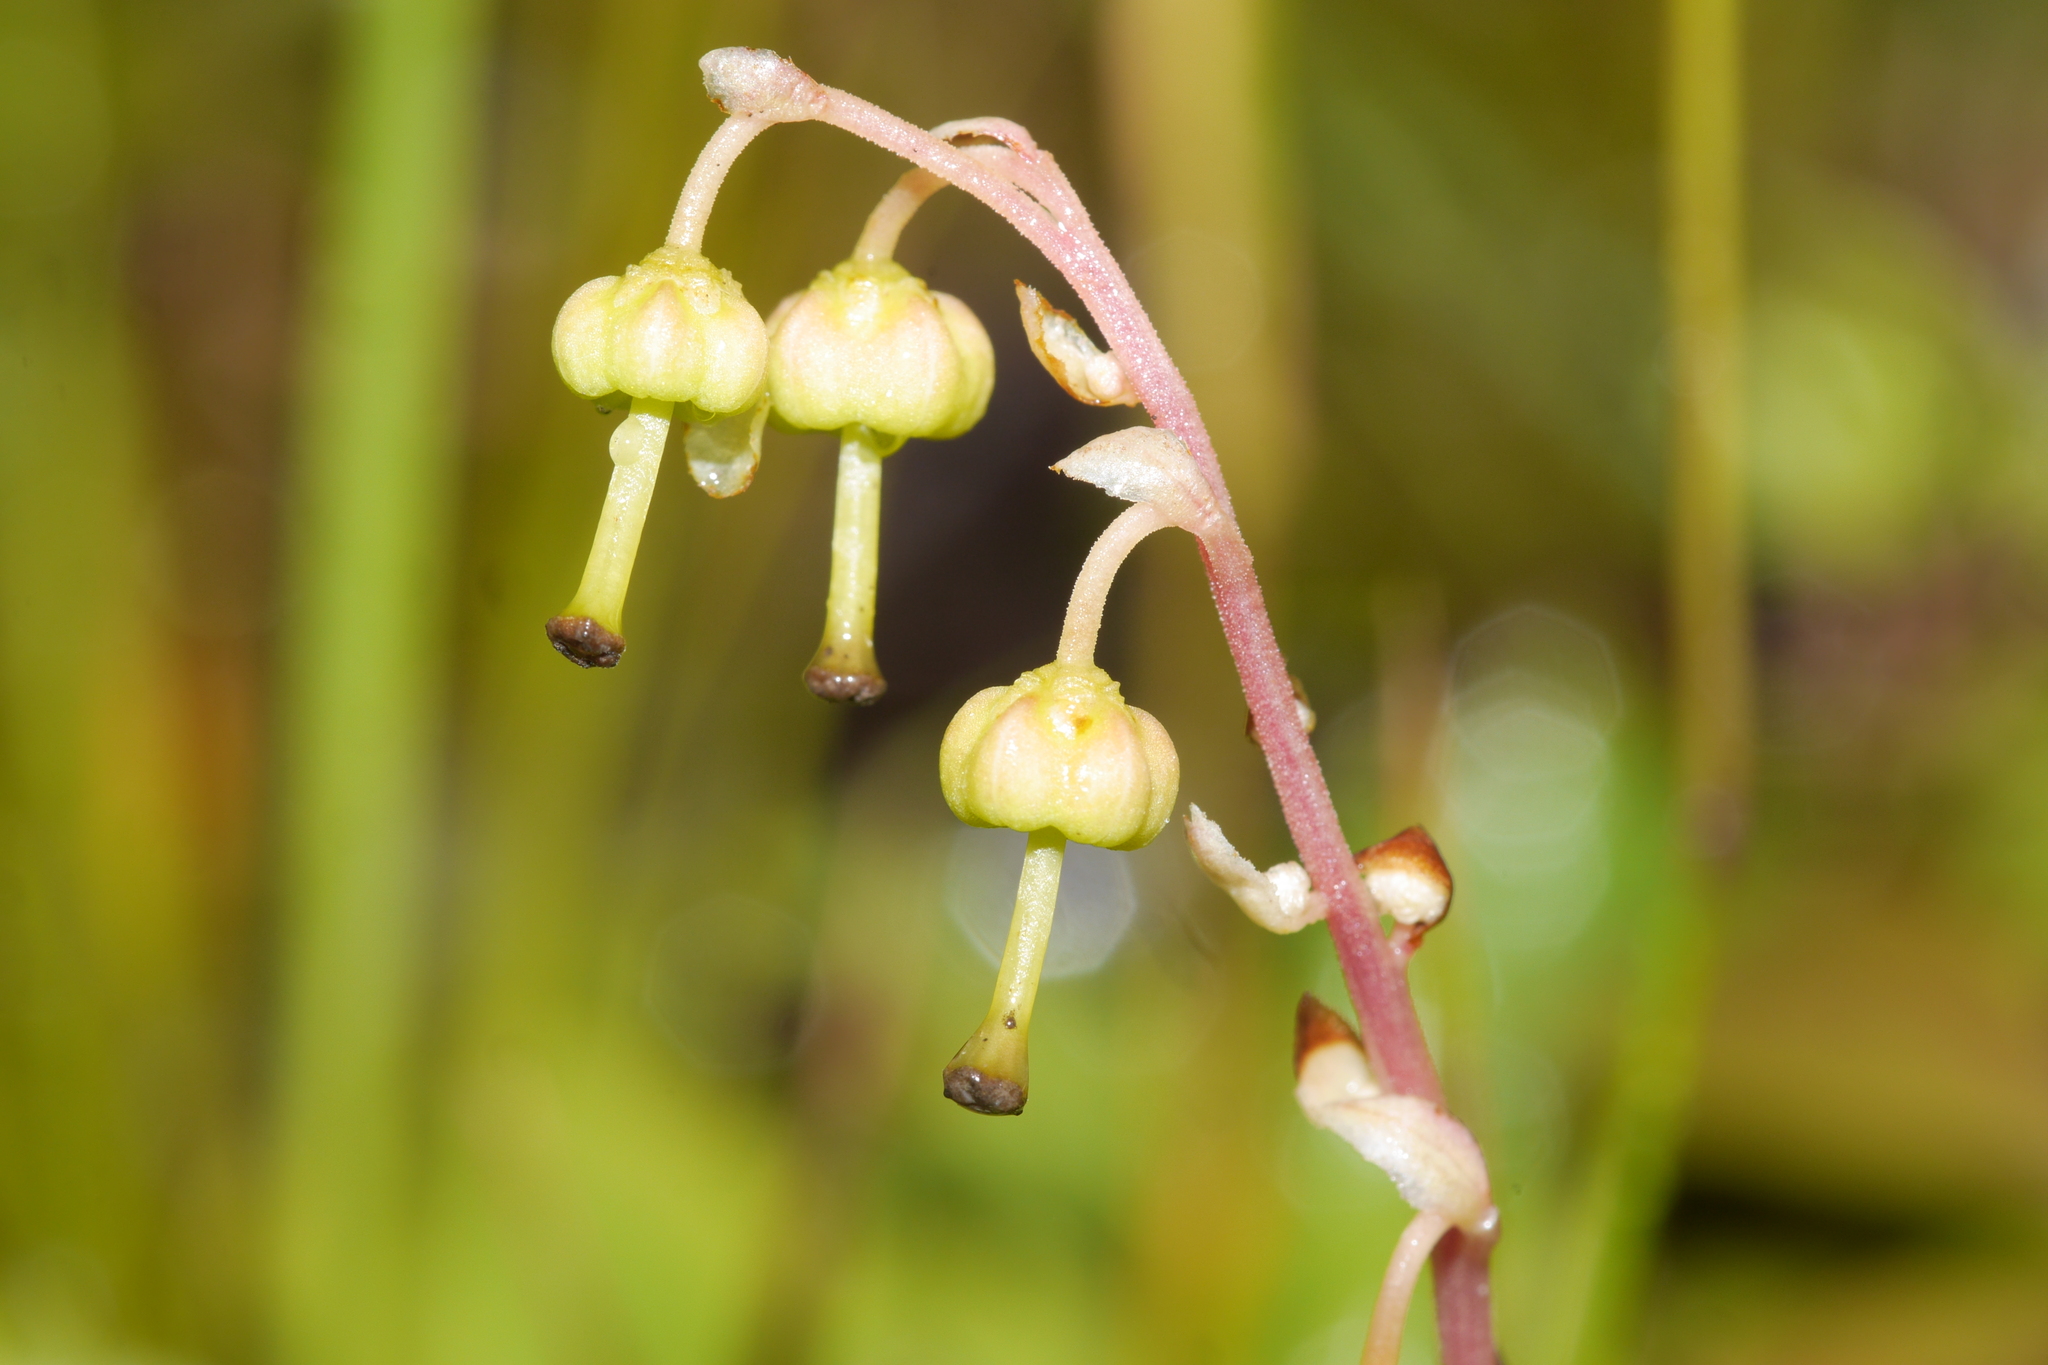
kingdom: Plantae
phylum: Tracheophyta
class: Magnoliopsida
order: Ericales
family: Ericaceae
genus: Orthilia
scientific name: Orthilia secunda
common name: One-sided orthilia
